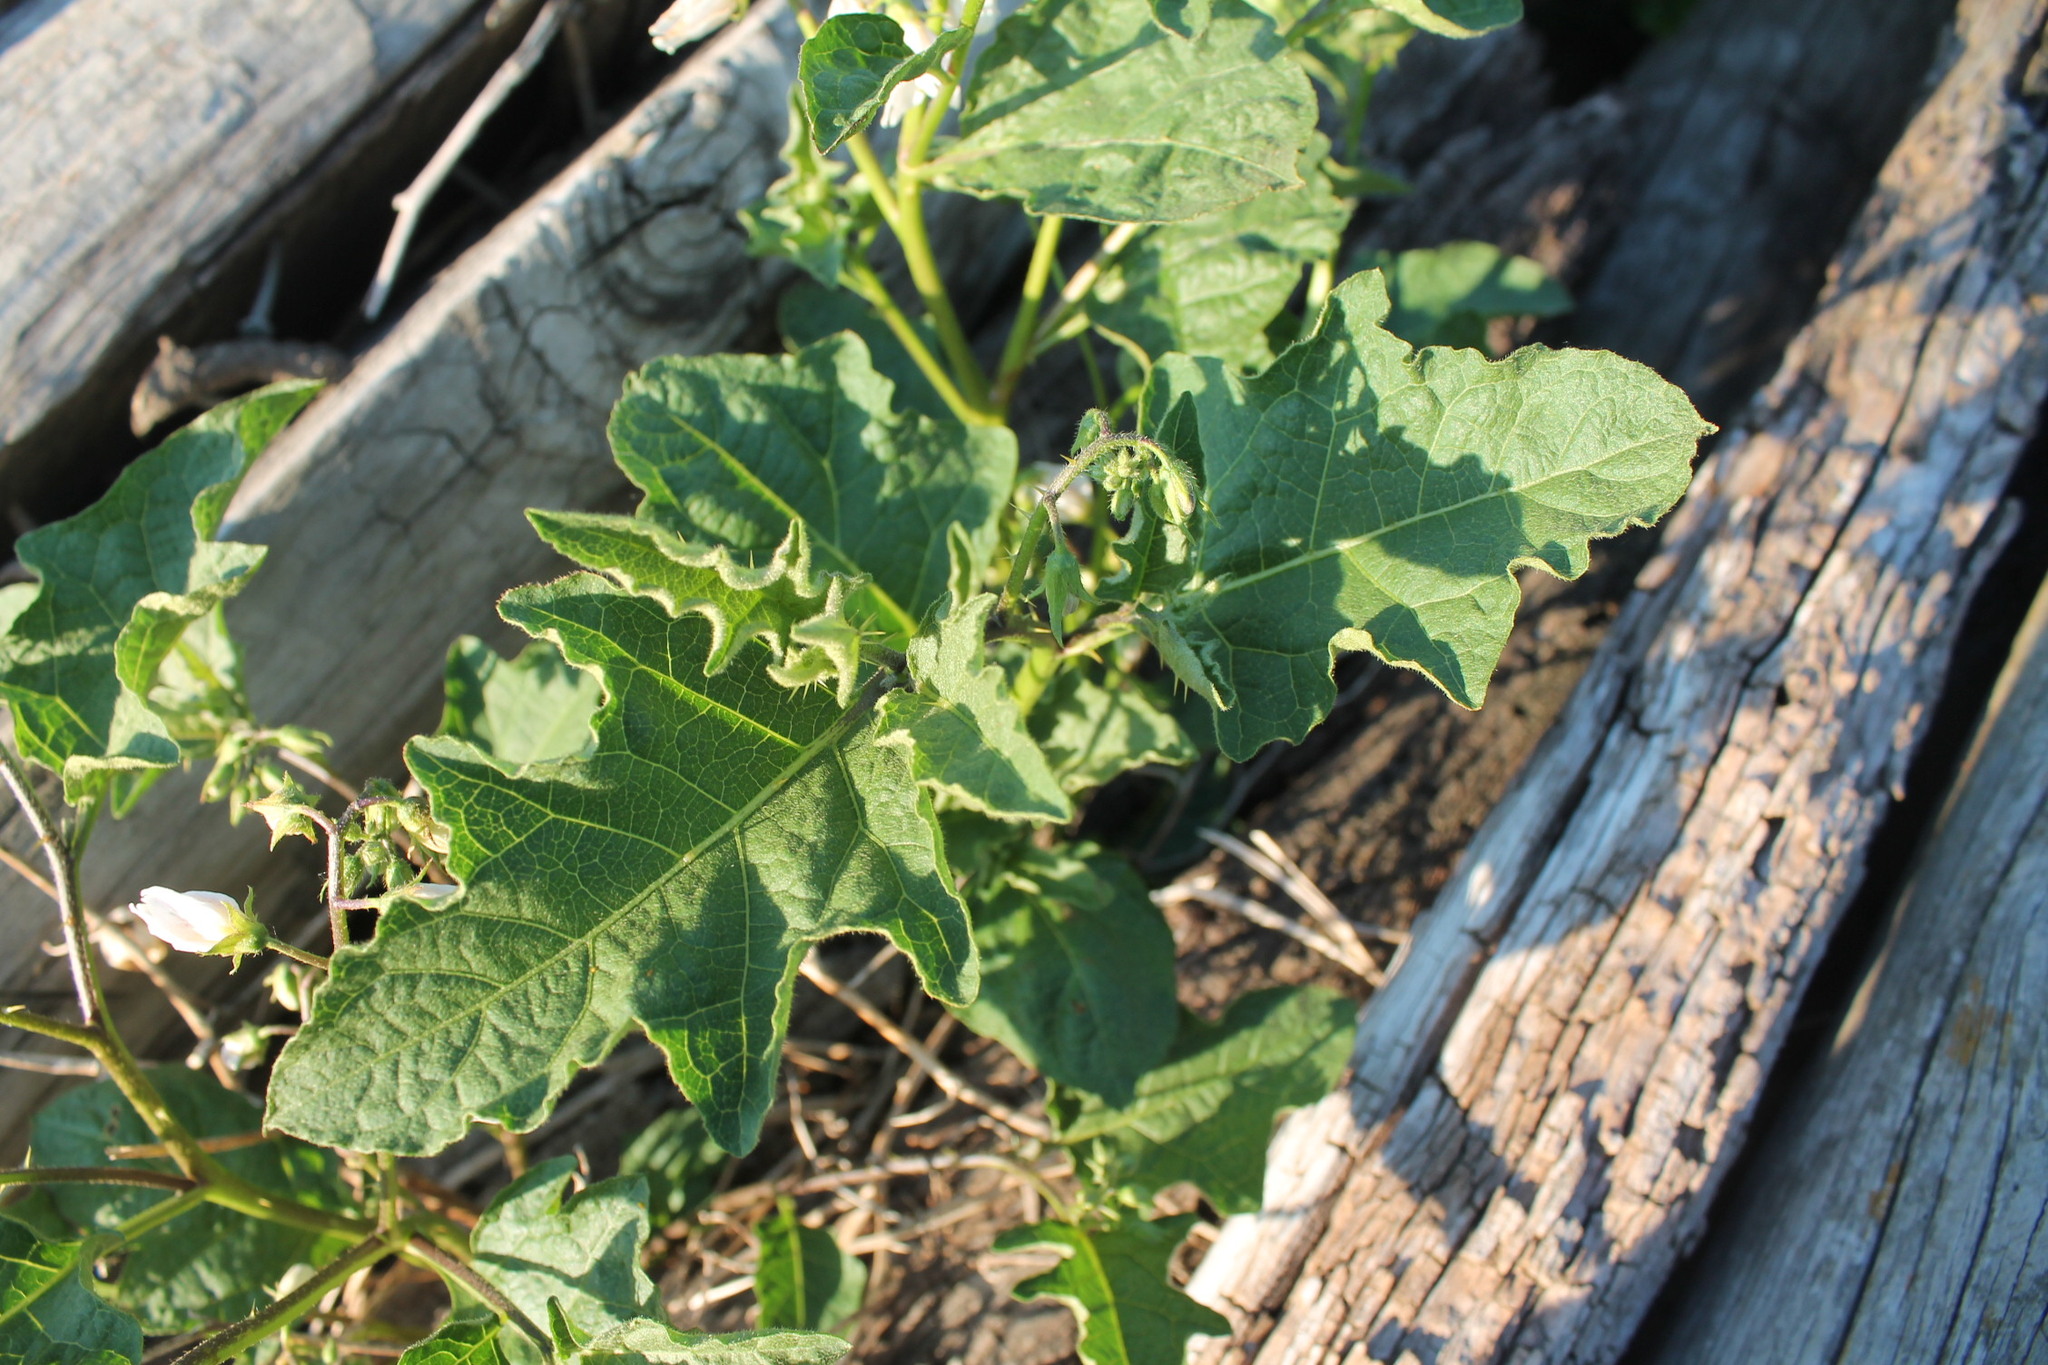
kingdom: Plantae
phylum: Tracheophyta
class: Magnoliopsida
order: Solanales
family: Solanaceae
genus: Solanum
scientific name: Solanum carolinense
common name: Horse-nettle
